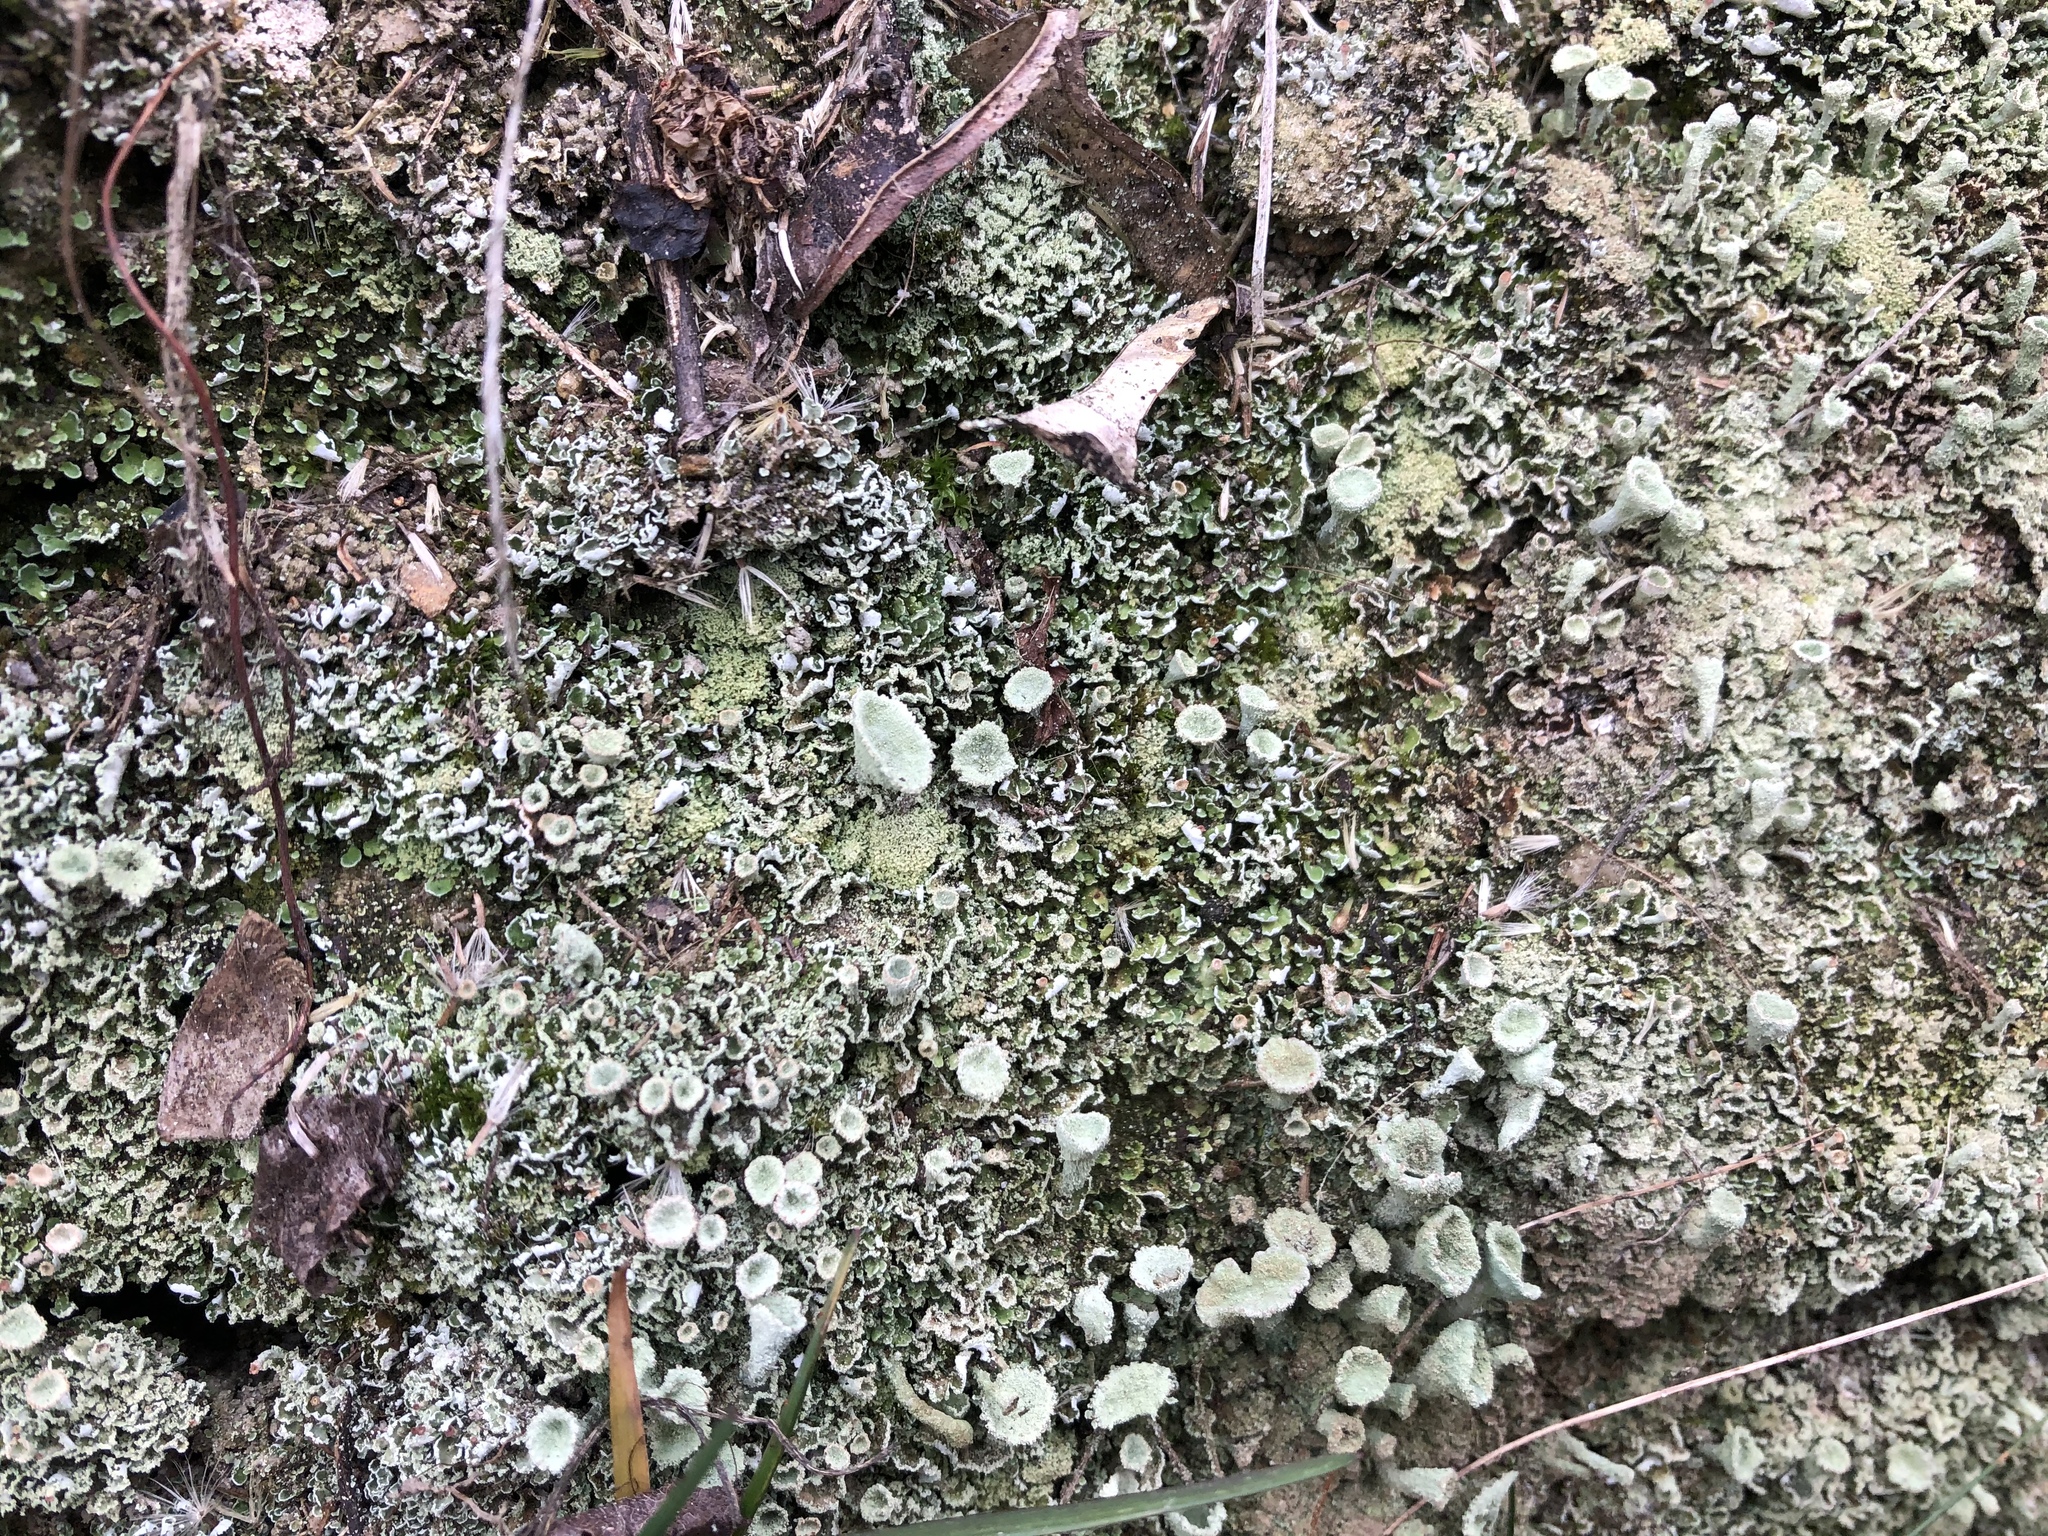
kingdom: Fungi
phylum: Ascomycota
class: Lecanoromycetes
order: Lecanorales
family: Cladoniaceae
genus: Cladonia
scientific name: Cladonia
